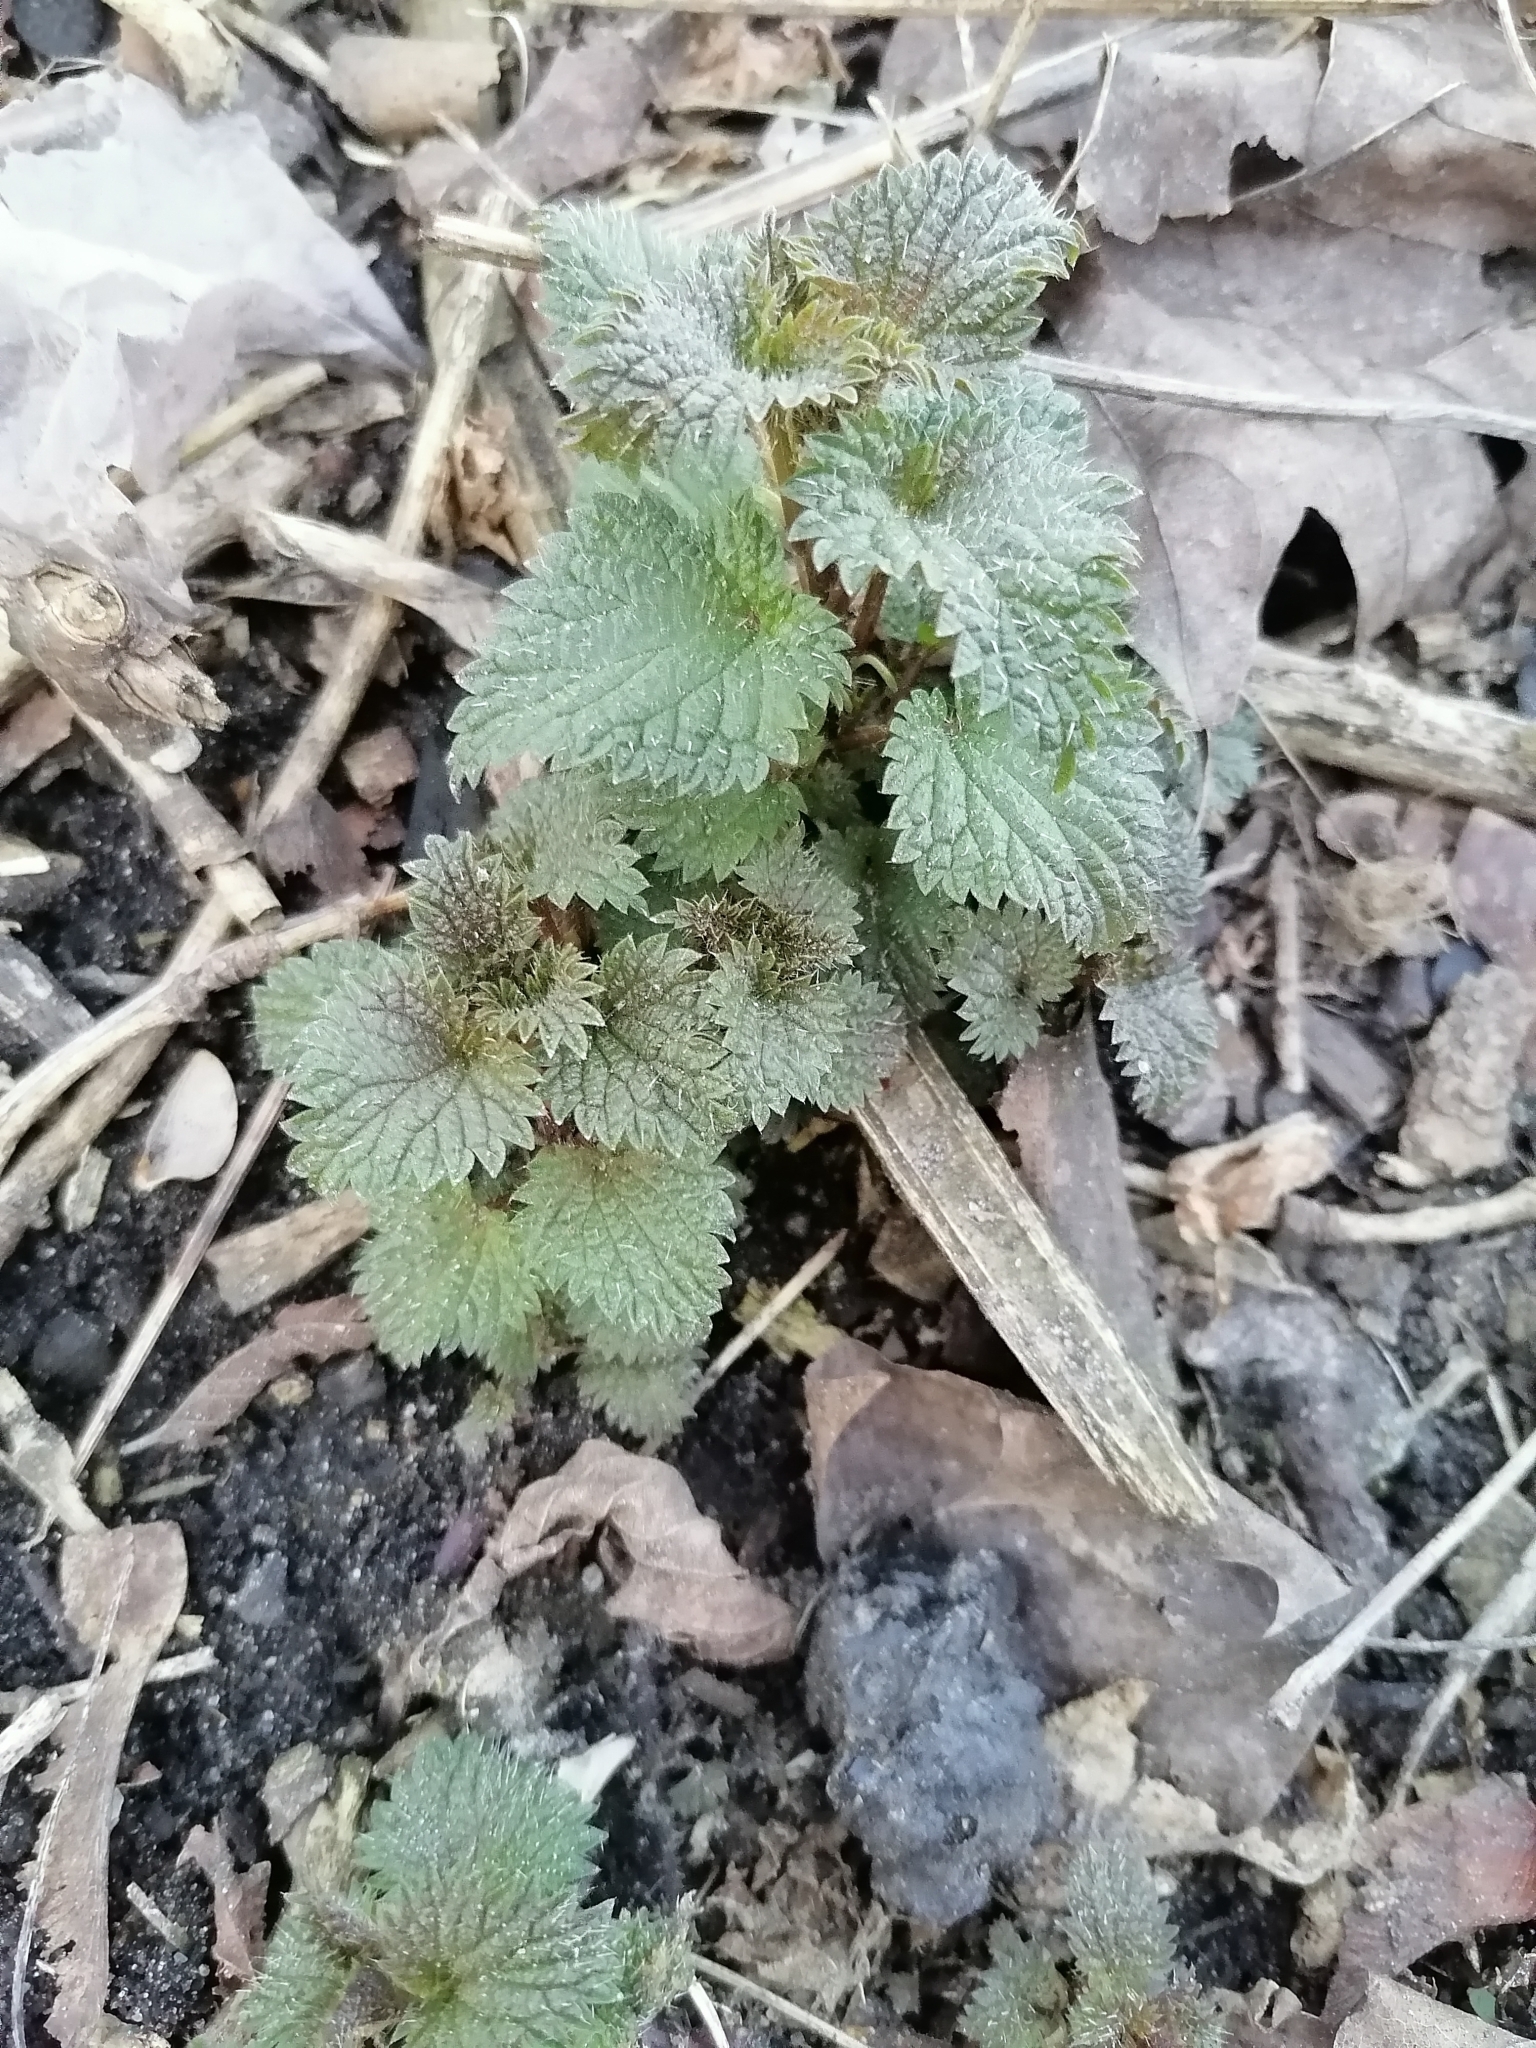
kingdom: Plantae
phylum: Tracheophyta
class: Magnoliopsida
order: Rosales
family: Urticaceae
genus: Urtica
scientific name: Urtica dioica
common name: Common nettle
